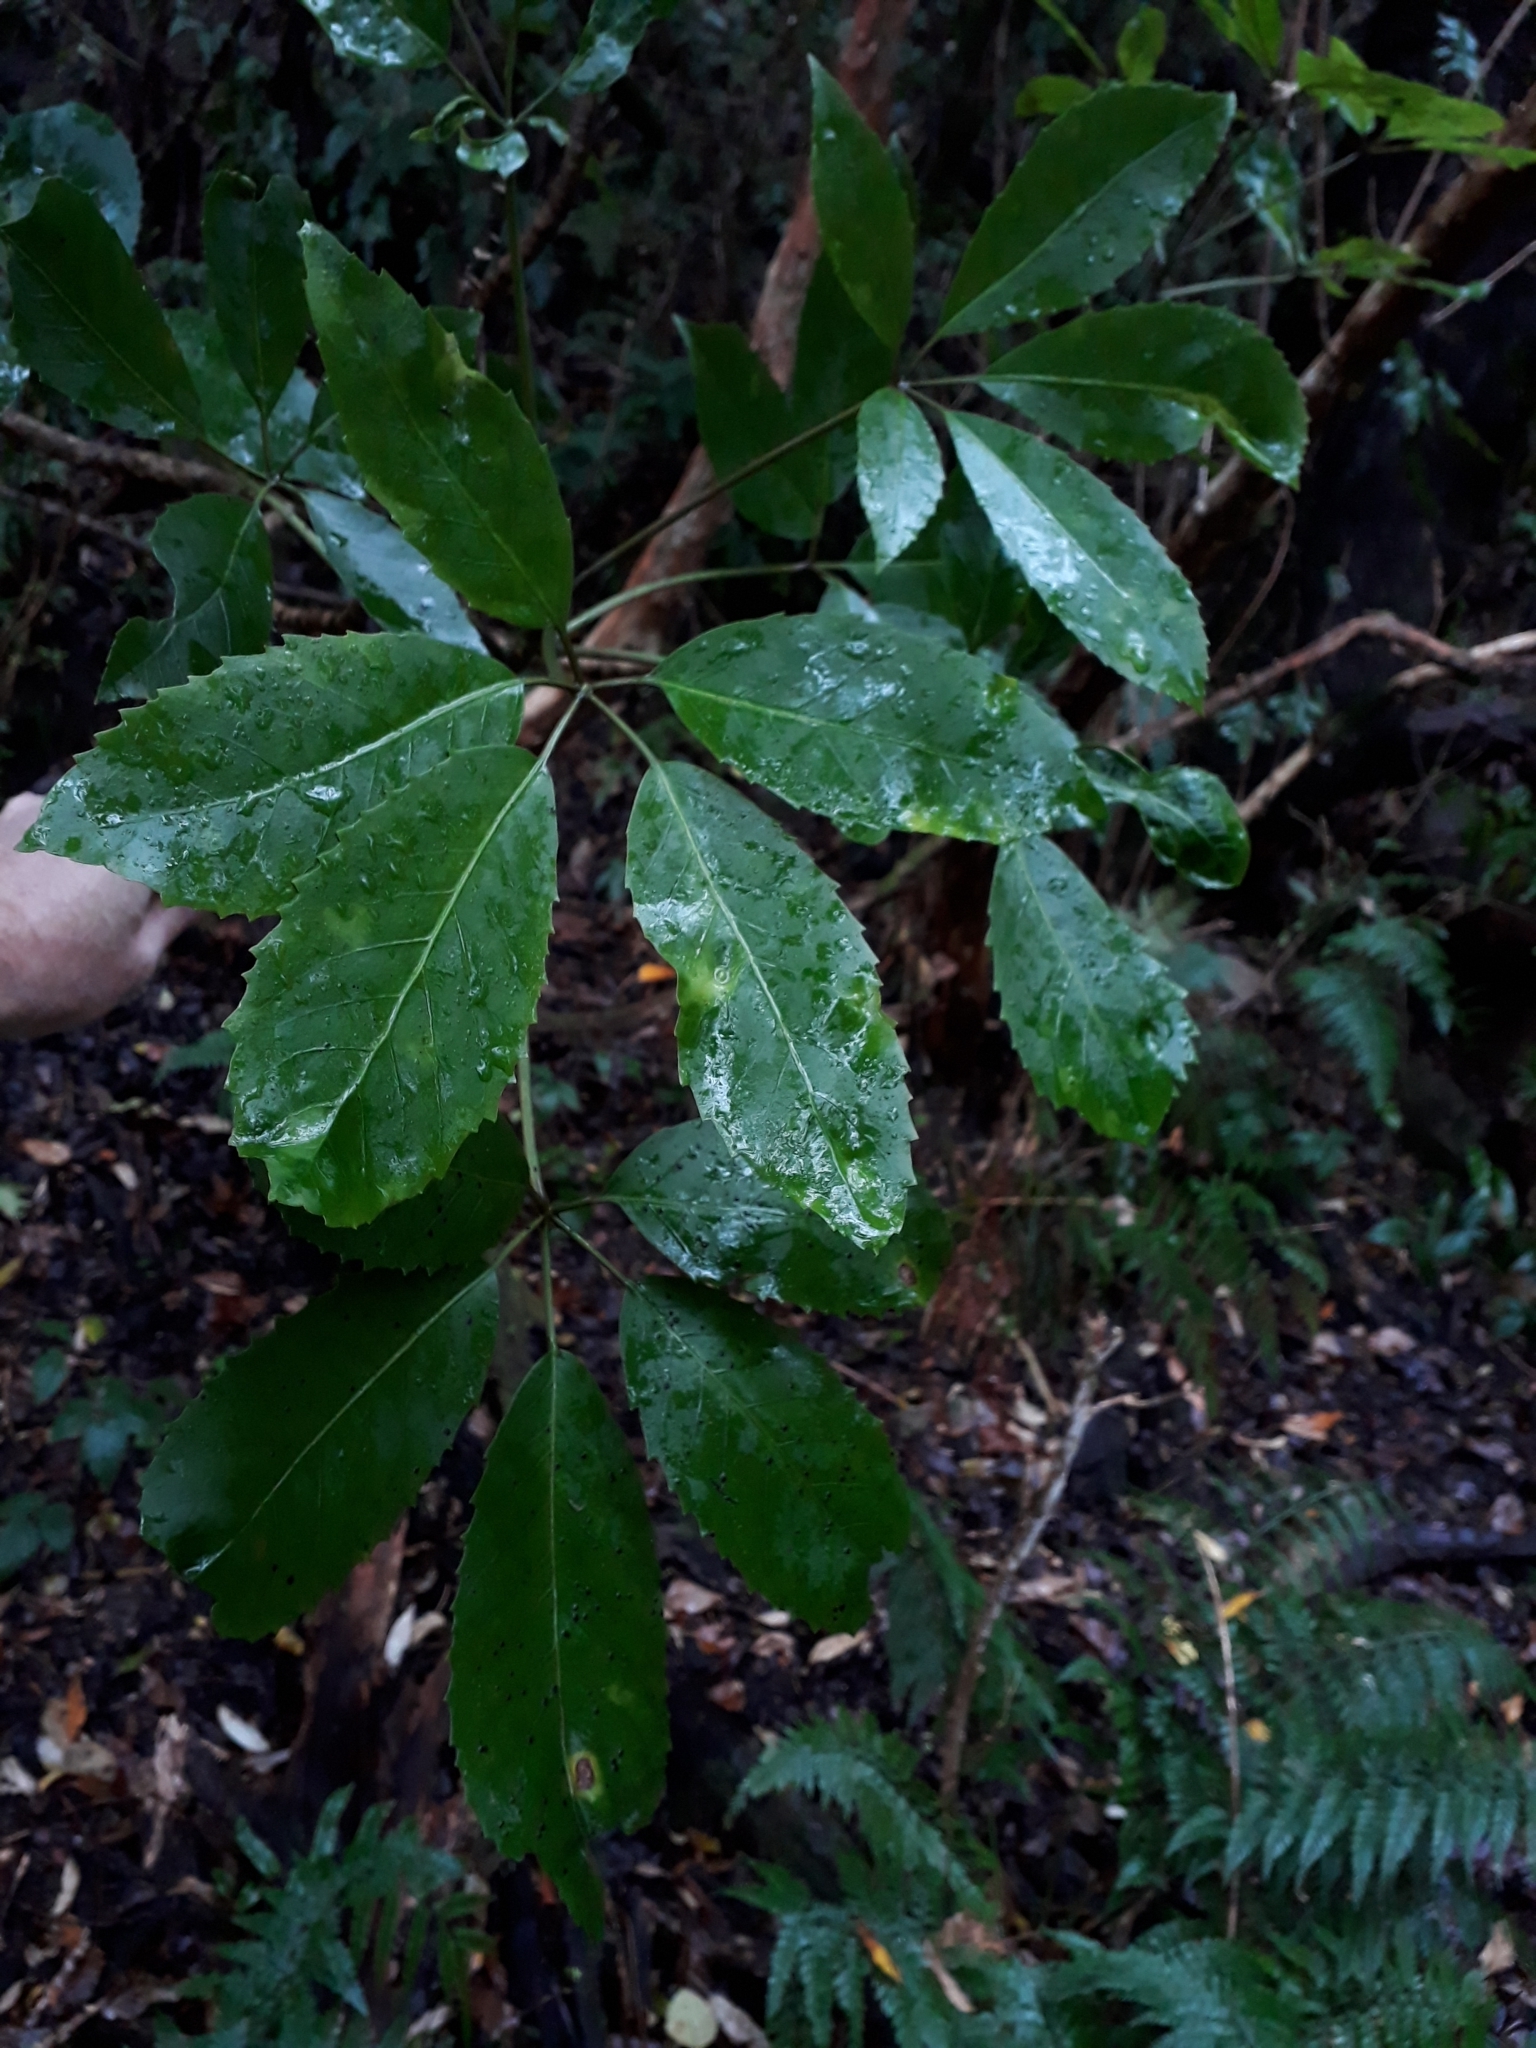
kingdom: Plantae
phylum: Tracheophyta
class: Magnoliopsida
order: Apiales
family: Araliaceae
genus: Neopanax
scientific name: Neopanax arboreus
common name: Five-fingers
